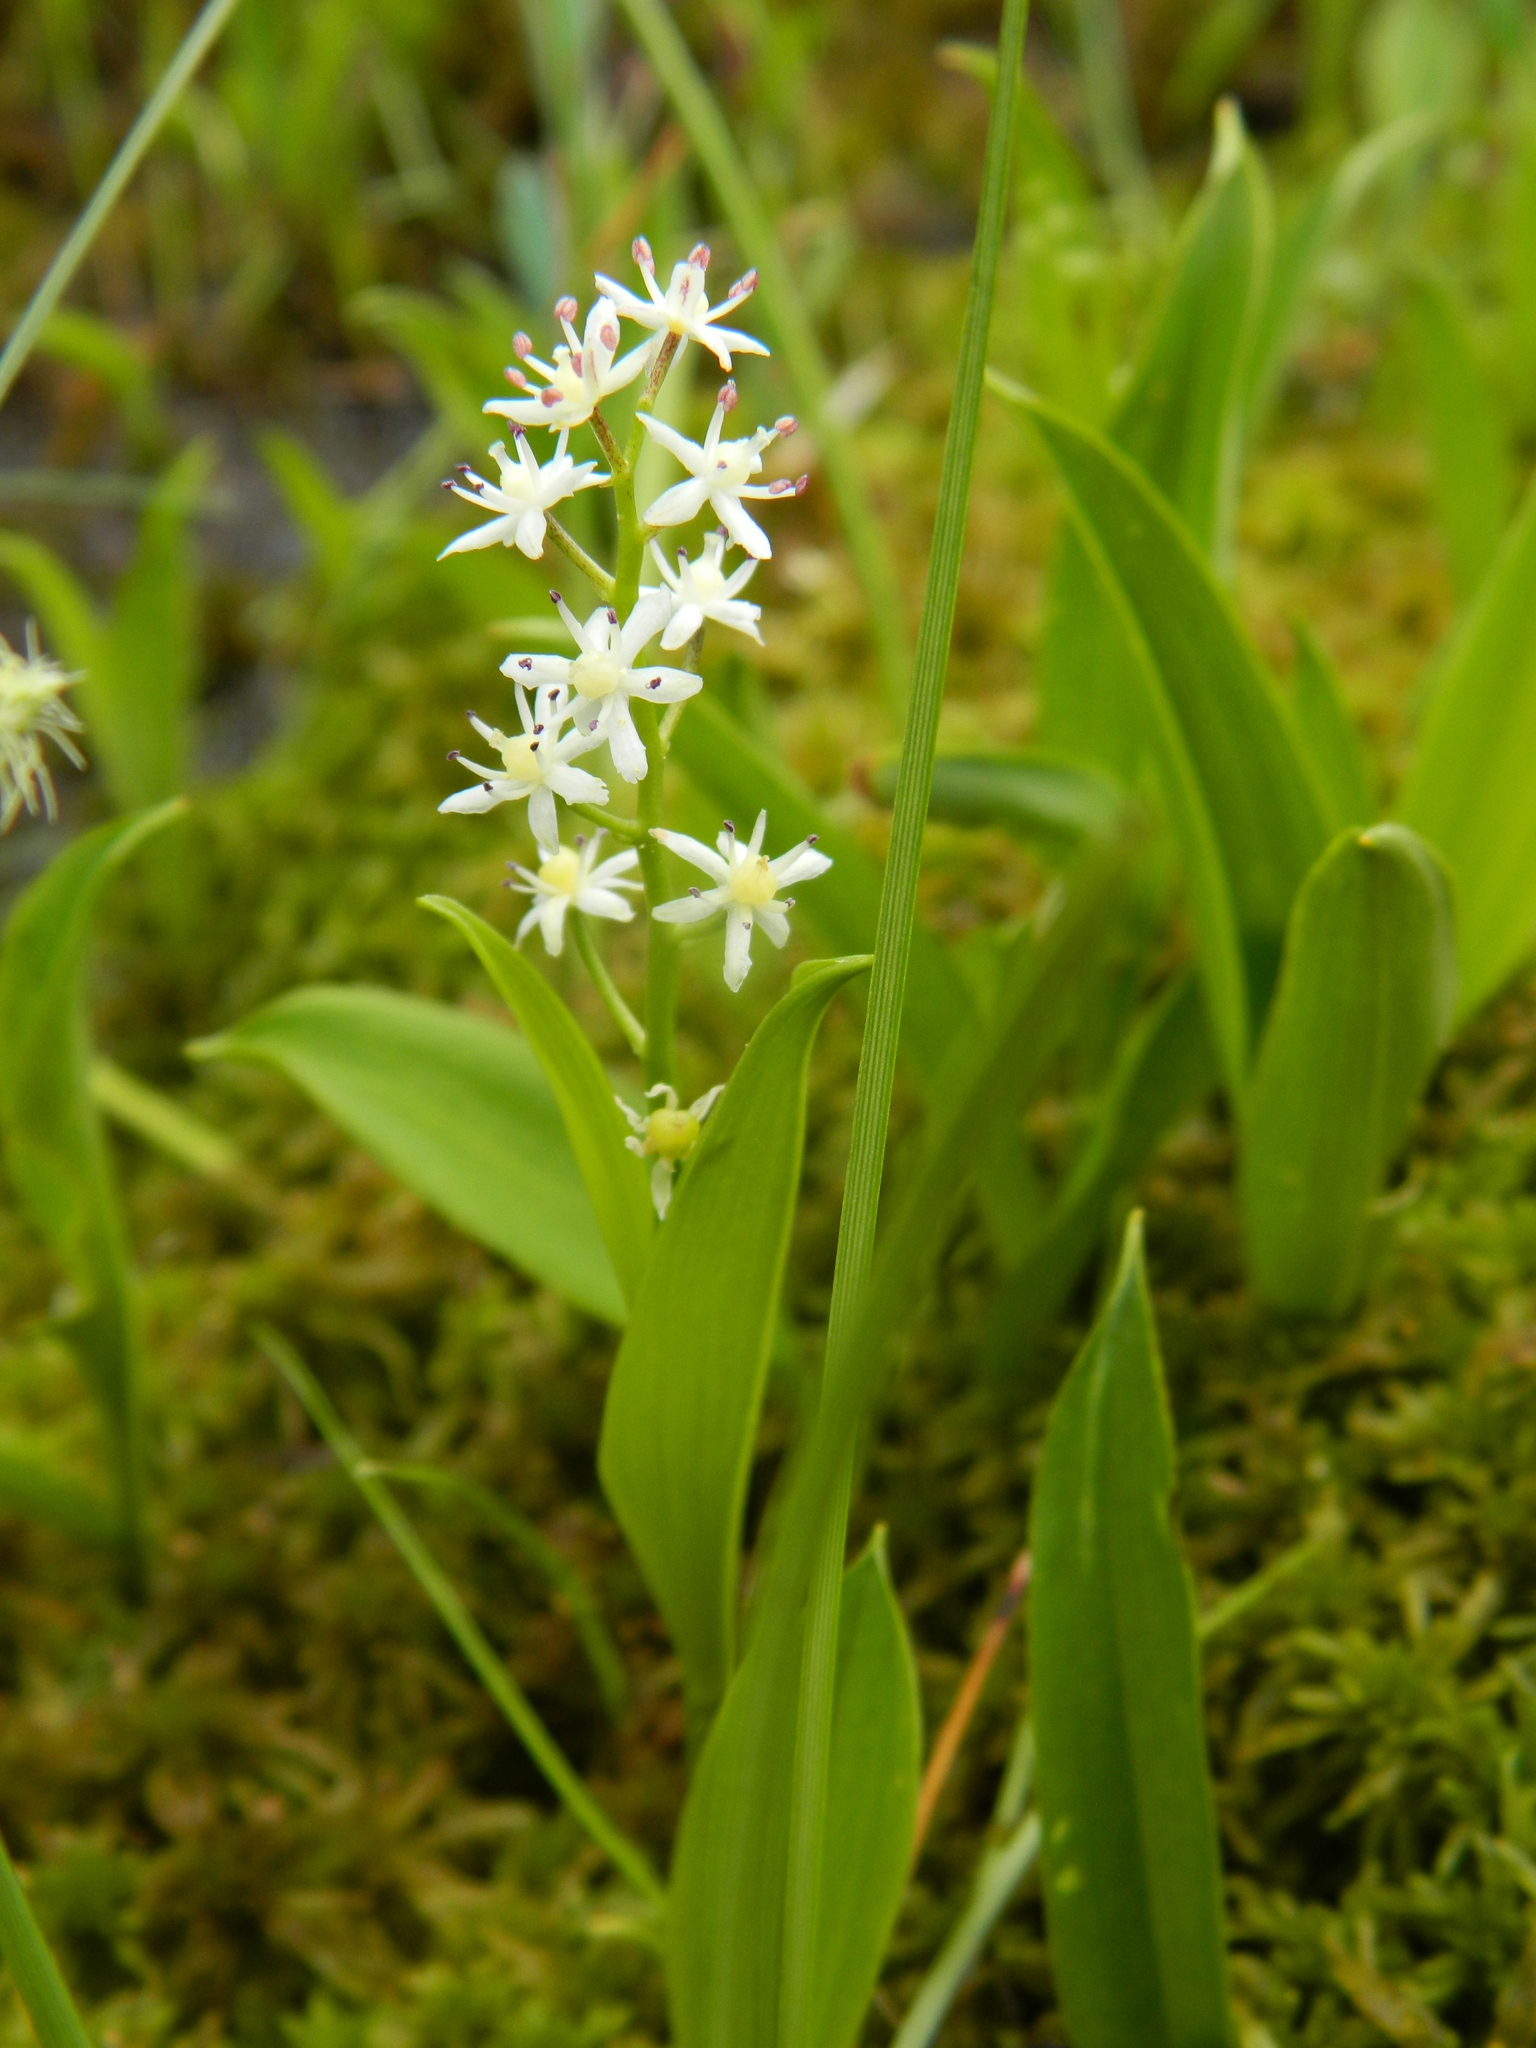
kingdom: Plantae
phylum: Tracheophyta
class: Liliopsida
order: Asparagales
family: Asparagaceae
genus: Maianthemum
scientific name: Maianthemum trifolium
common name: Swamp false solomon's seal
